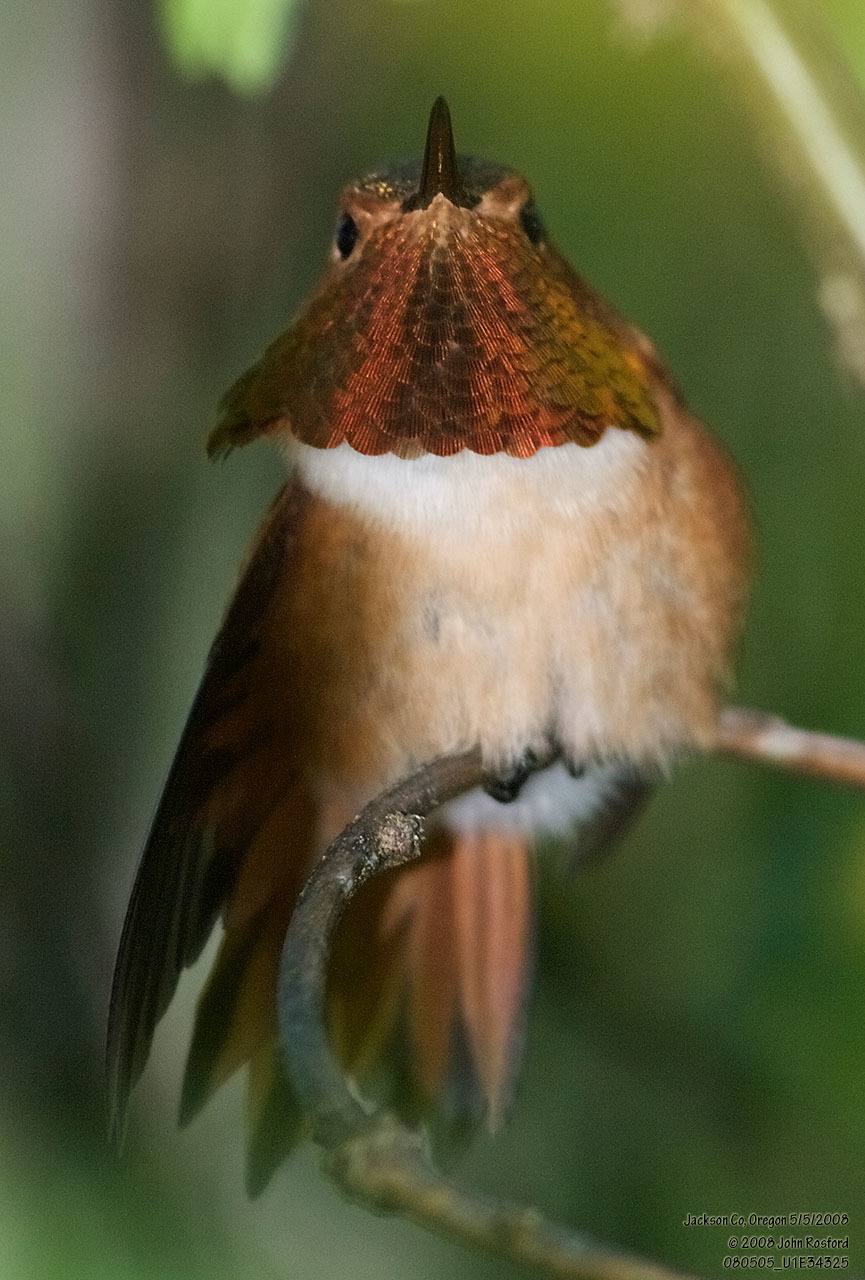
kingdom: Animalia
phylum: Chordata
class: Aves
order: Apodiformes
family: Trochilidae
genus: Selasphorus
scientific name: Selasphorus rufus
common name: Rufous hummingbird
